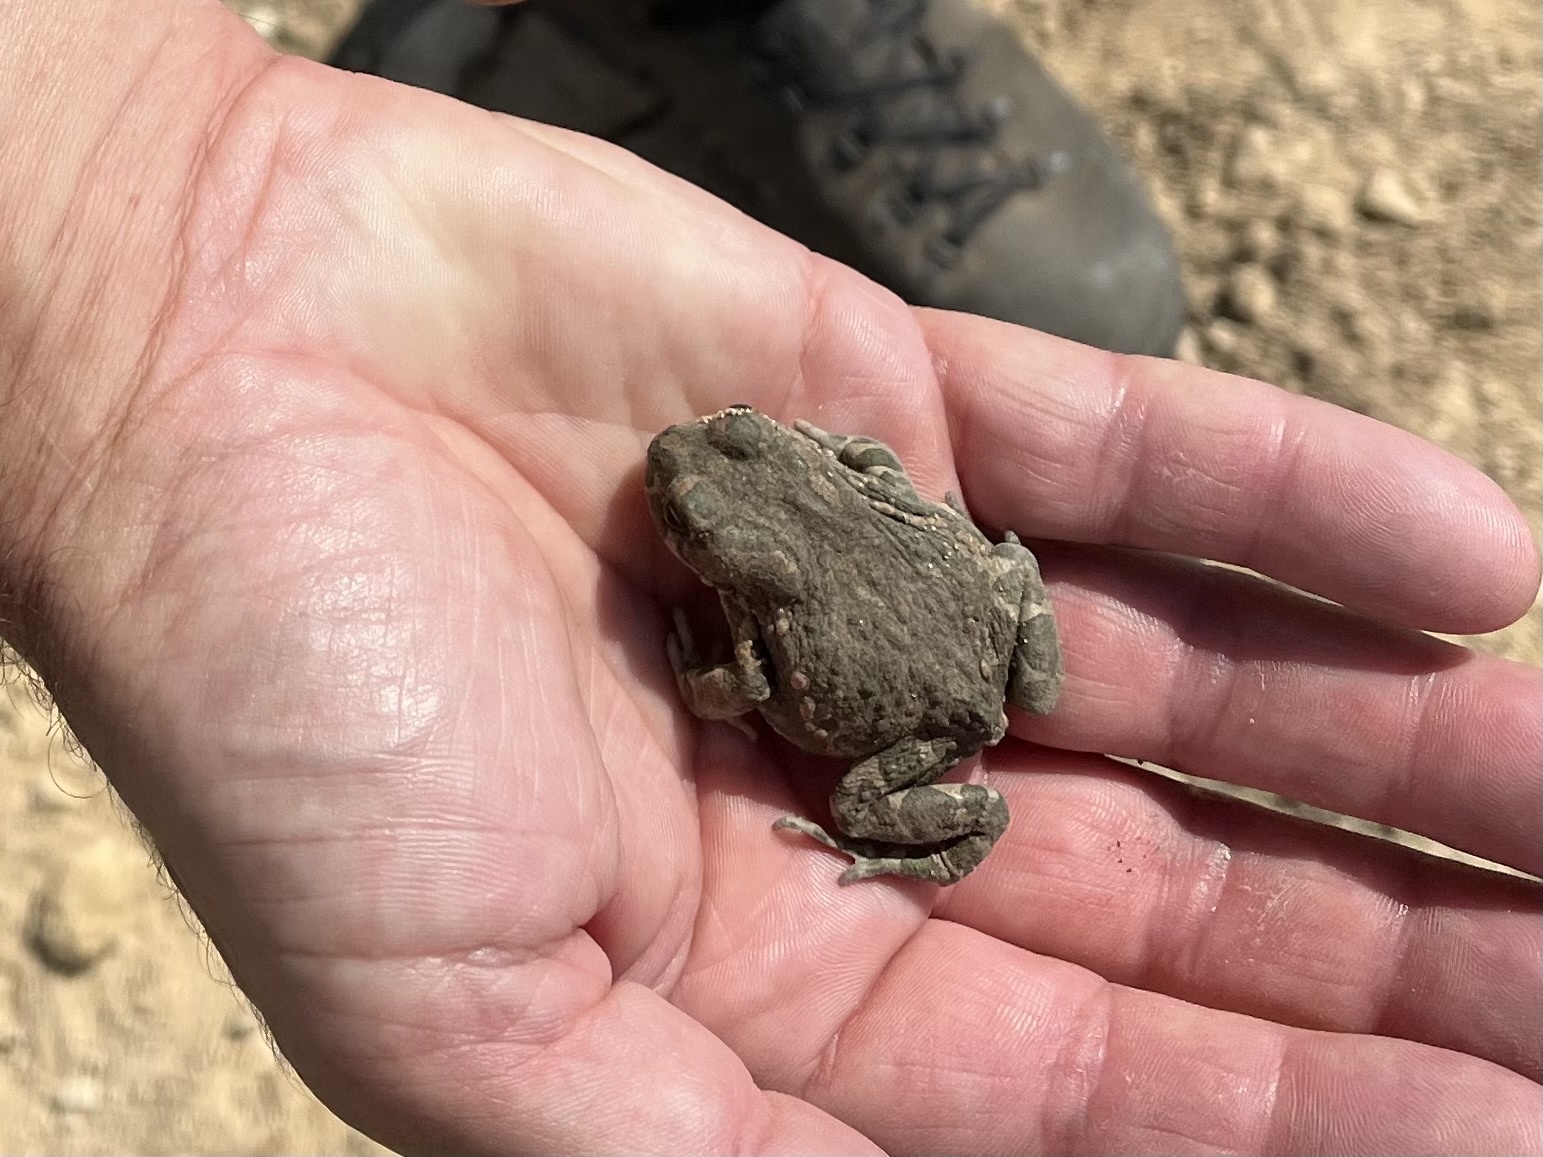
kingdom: Animalia
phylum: Chordata
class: Amphibia
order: Anura
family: Bufonidae
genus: Bufotes
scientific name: Bufotes viridis
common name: European green toad
